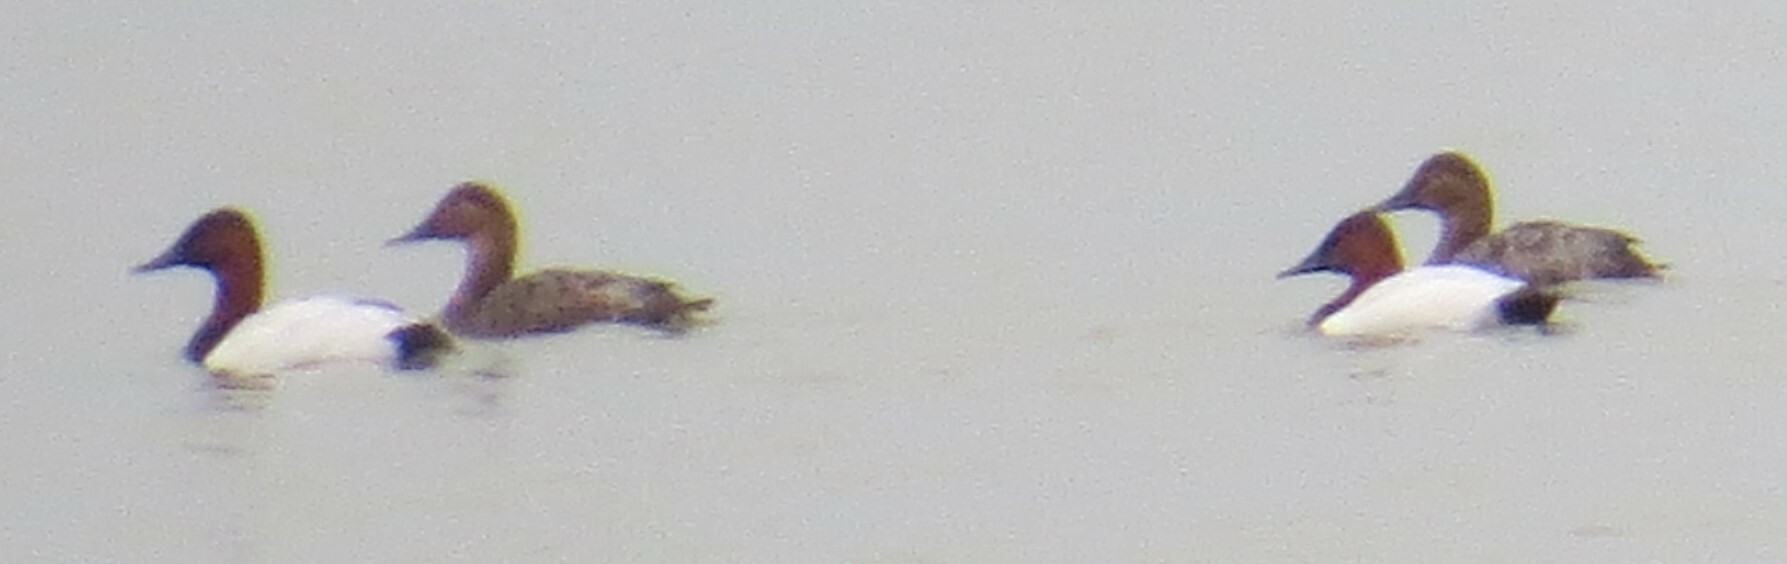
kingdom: Animalia
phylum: Chordata
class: Aves
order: Anseriformes
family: Anatidae
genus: Aythya
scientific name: Aythya valisineria
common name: Canvasback
